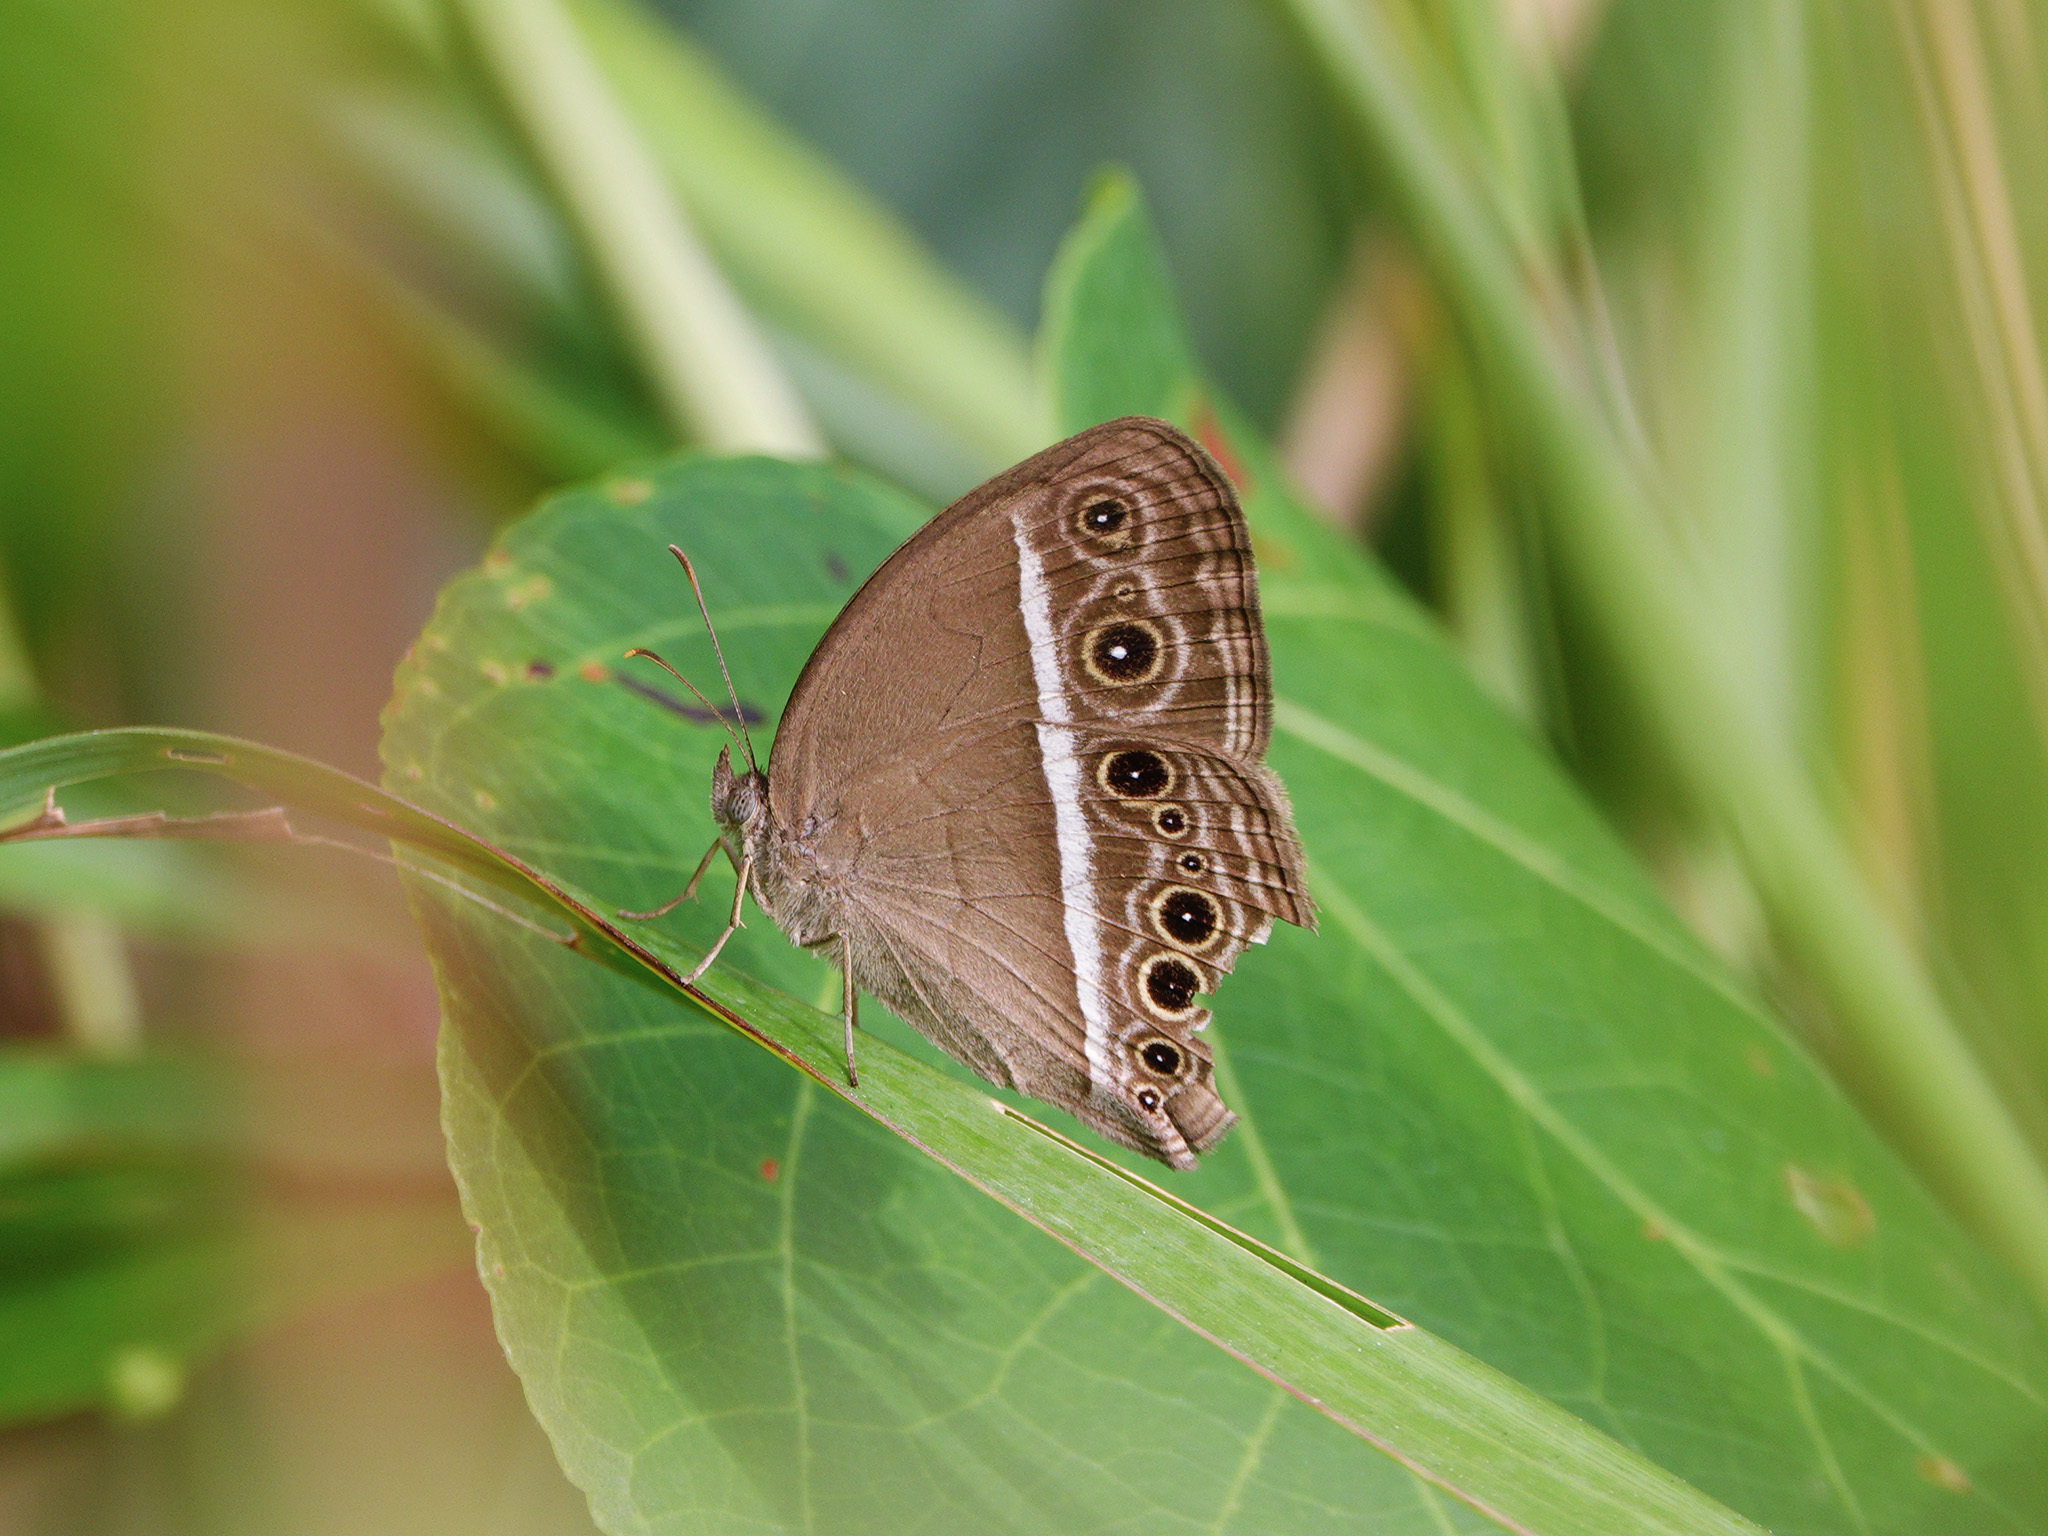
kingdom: Animalia
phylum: Arthropoda
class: Insecta
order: Lepidoptera
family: Nymphalidae
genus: Mycalesis
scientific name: Mycalesis mineus
